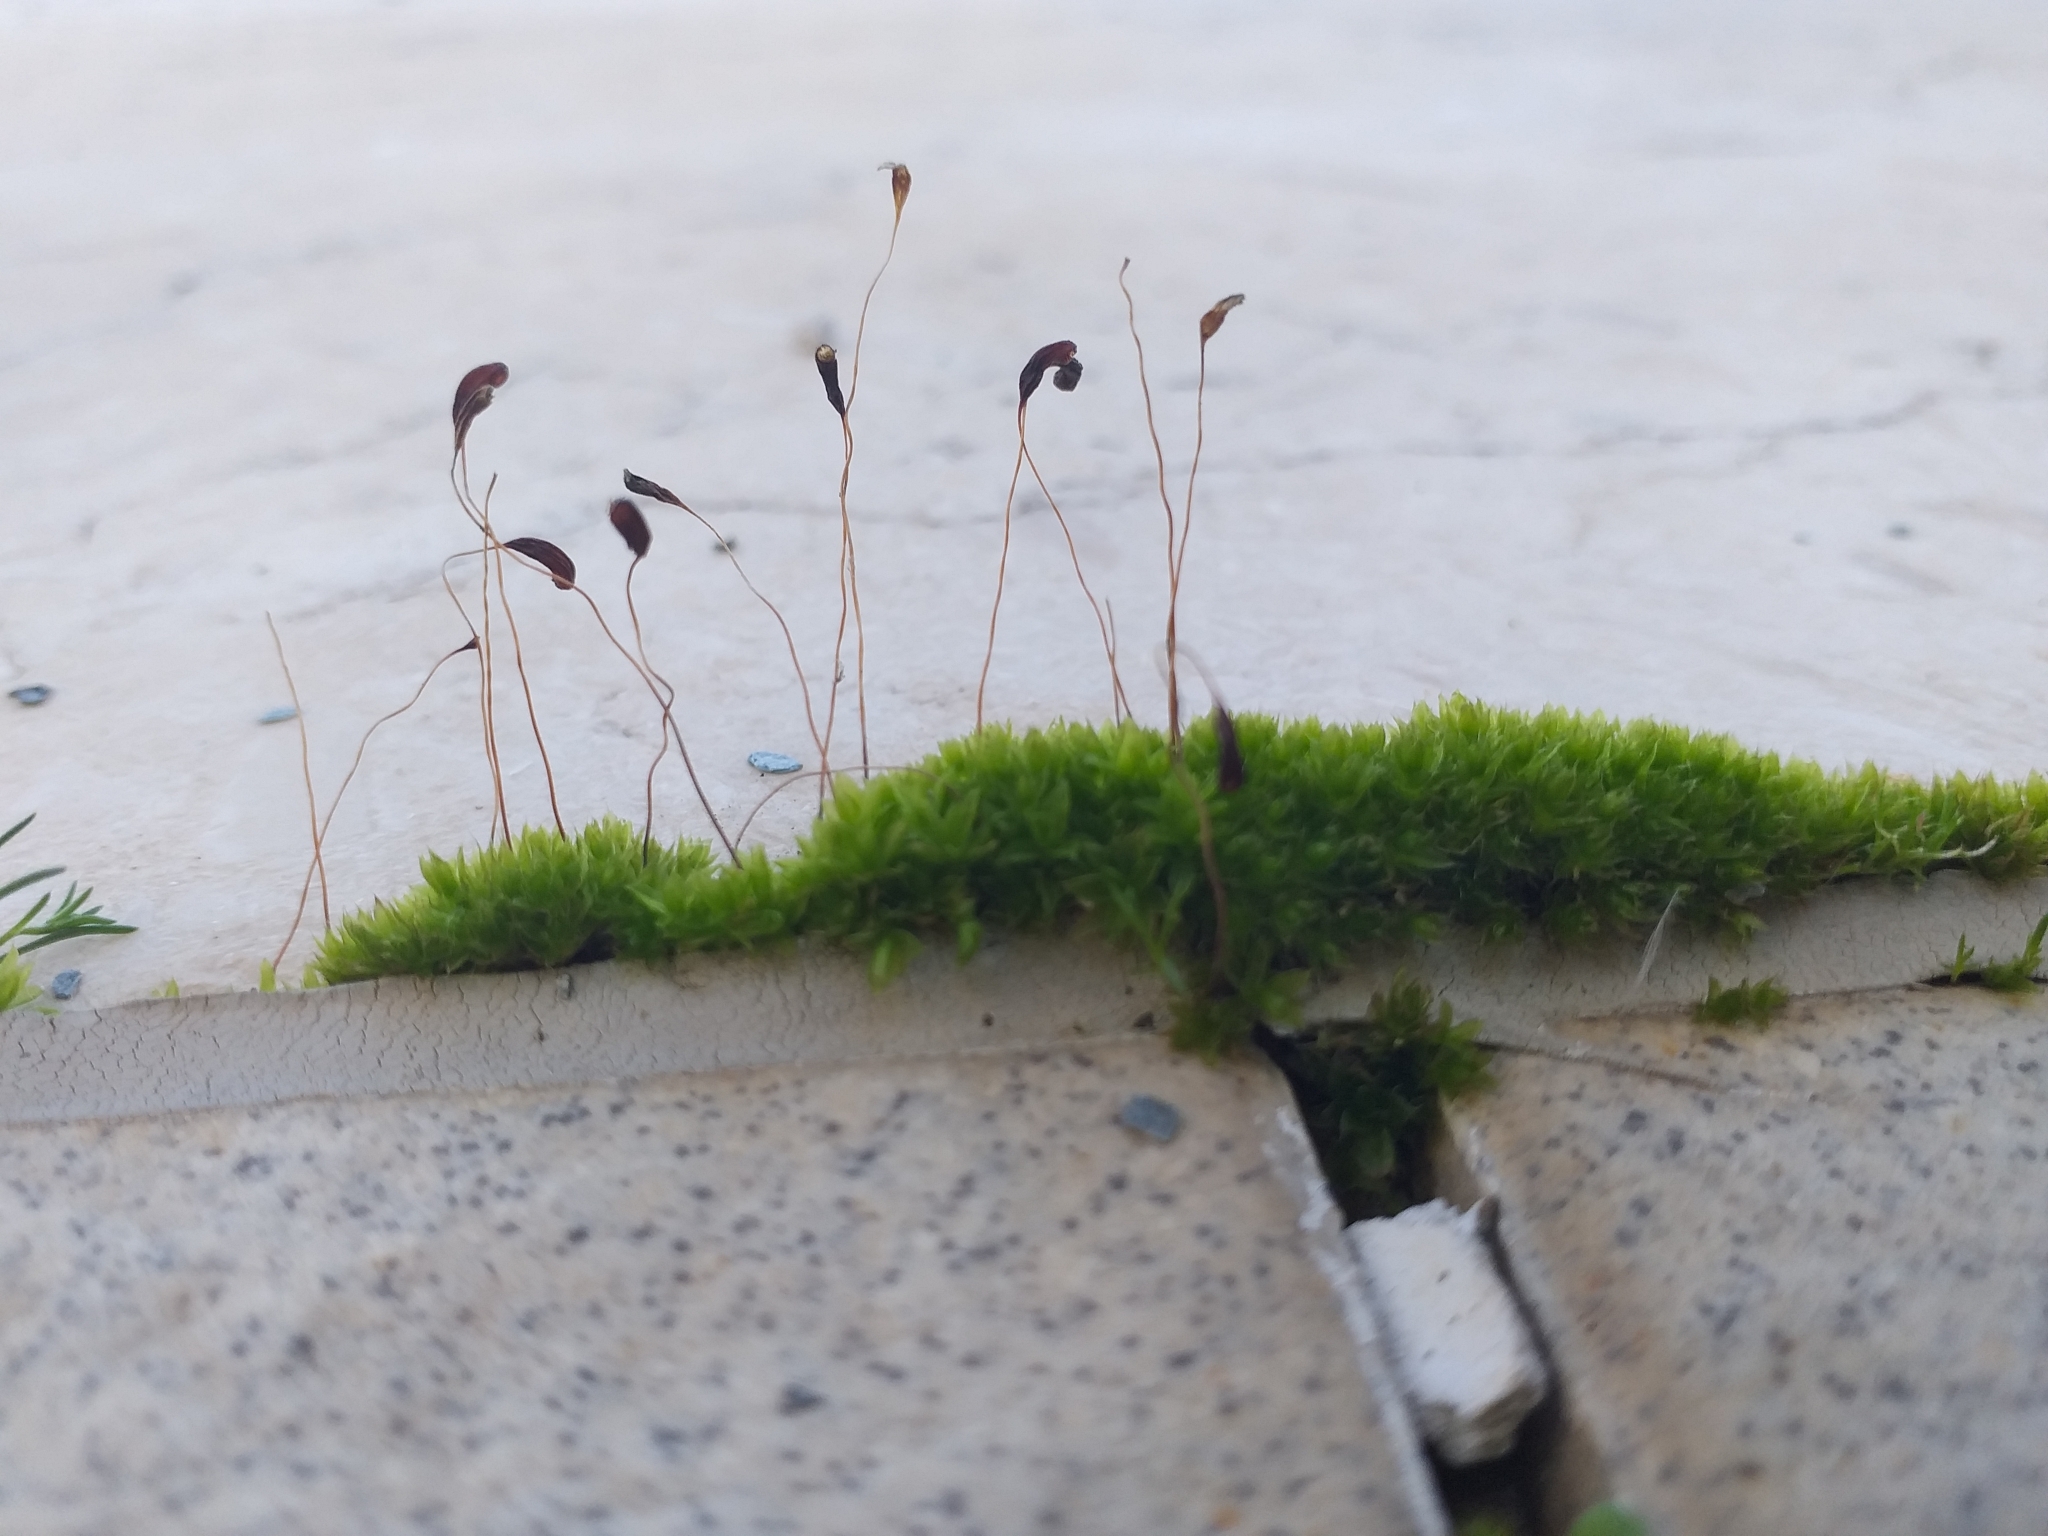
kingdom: Plantae
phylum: Bryophyta
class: Bryopsida
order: Funariales
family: Funariaceae
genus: Funaria
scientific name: Funaria hygrometrica
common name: Common cord moss
